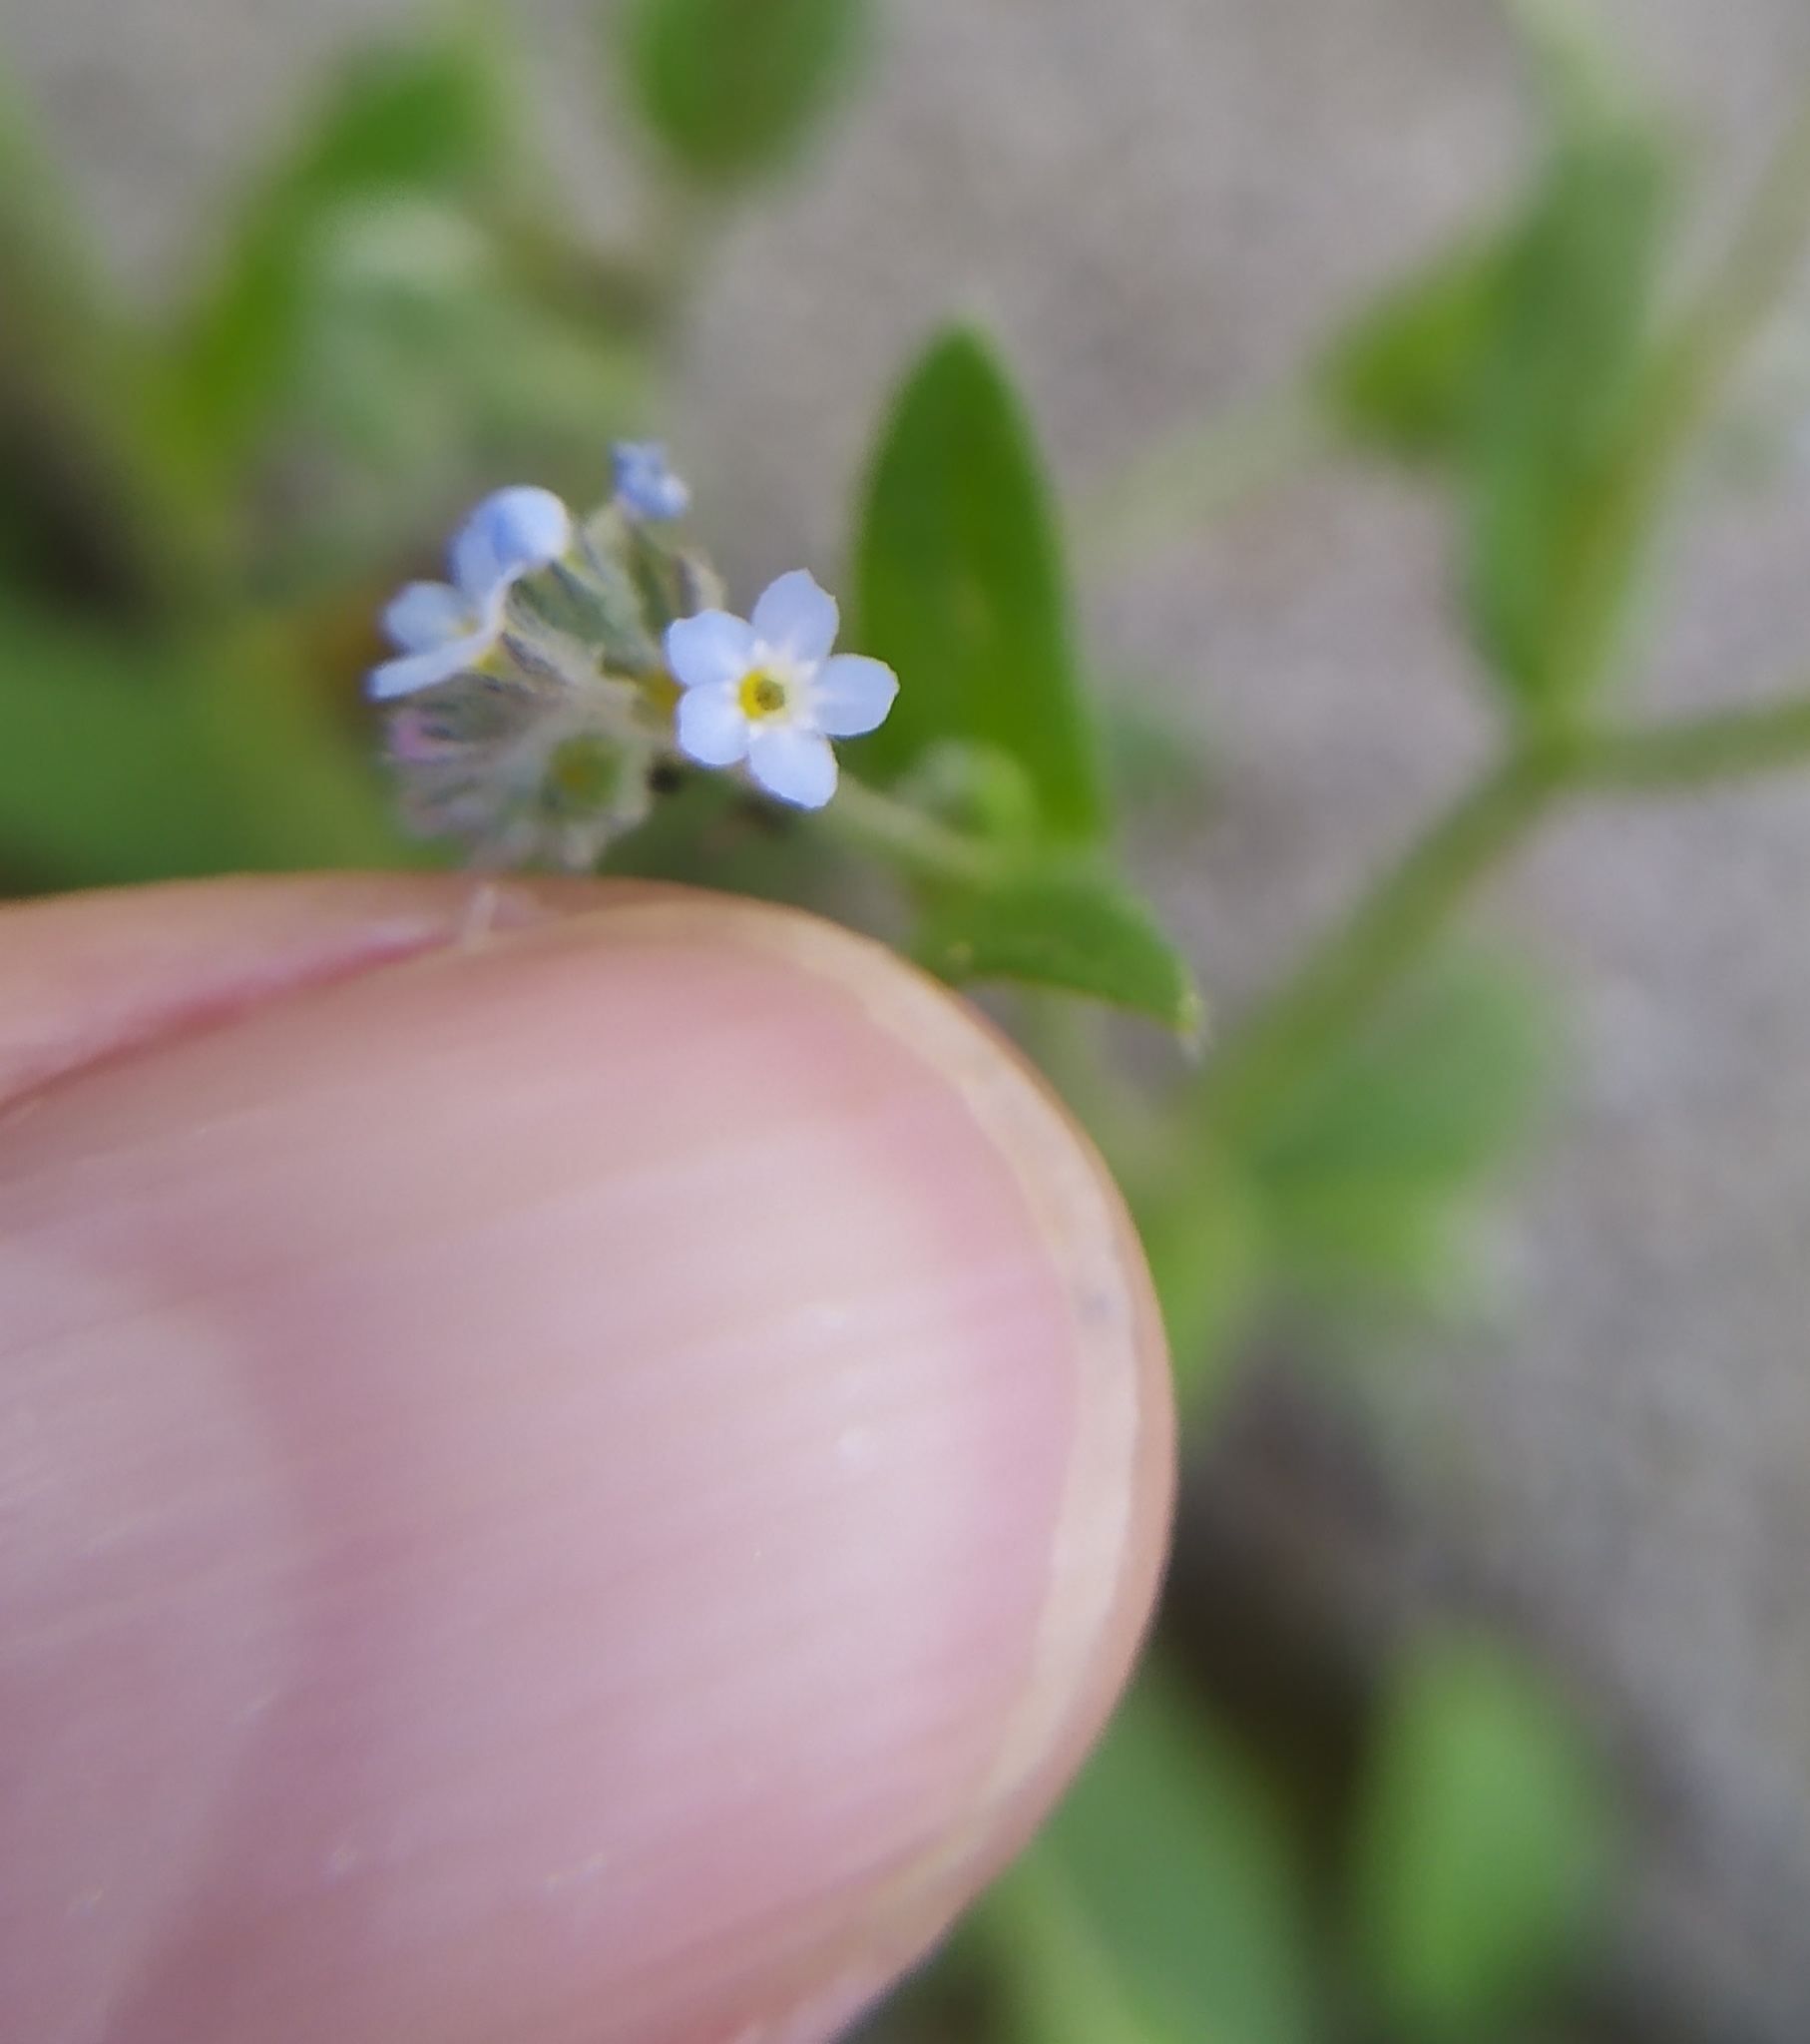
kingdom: Plantae
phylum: Tracheophyta
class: Magnoliopsida
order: Boraginales
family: Boraginaceae
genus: Myosotis
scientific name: Myosotis arvensis
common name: Field forget-me-not
